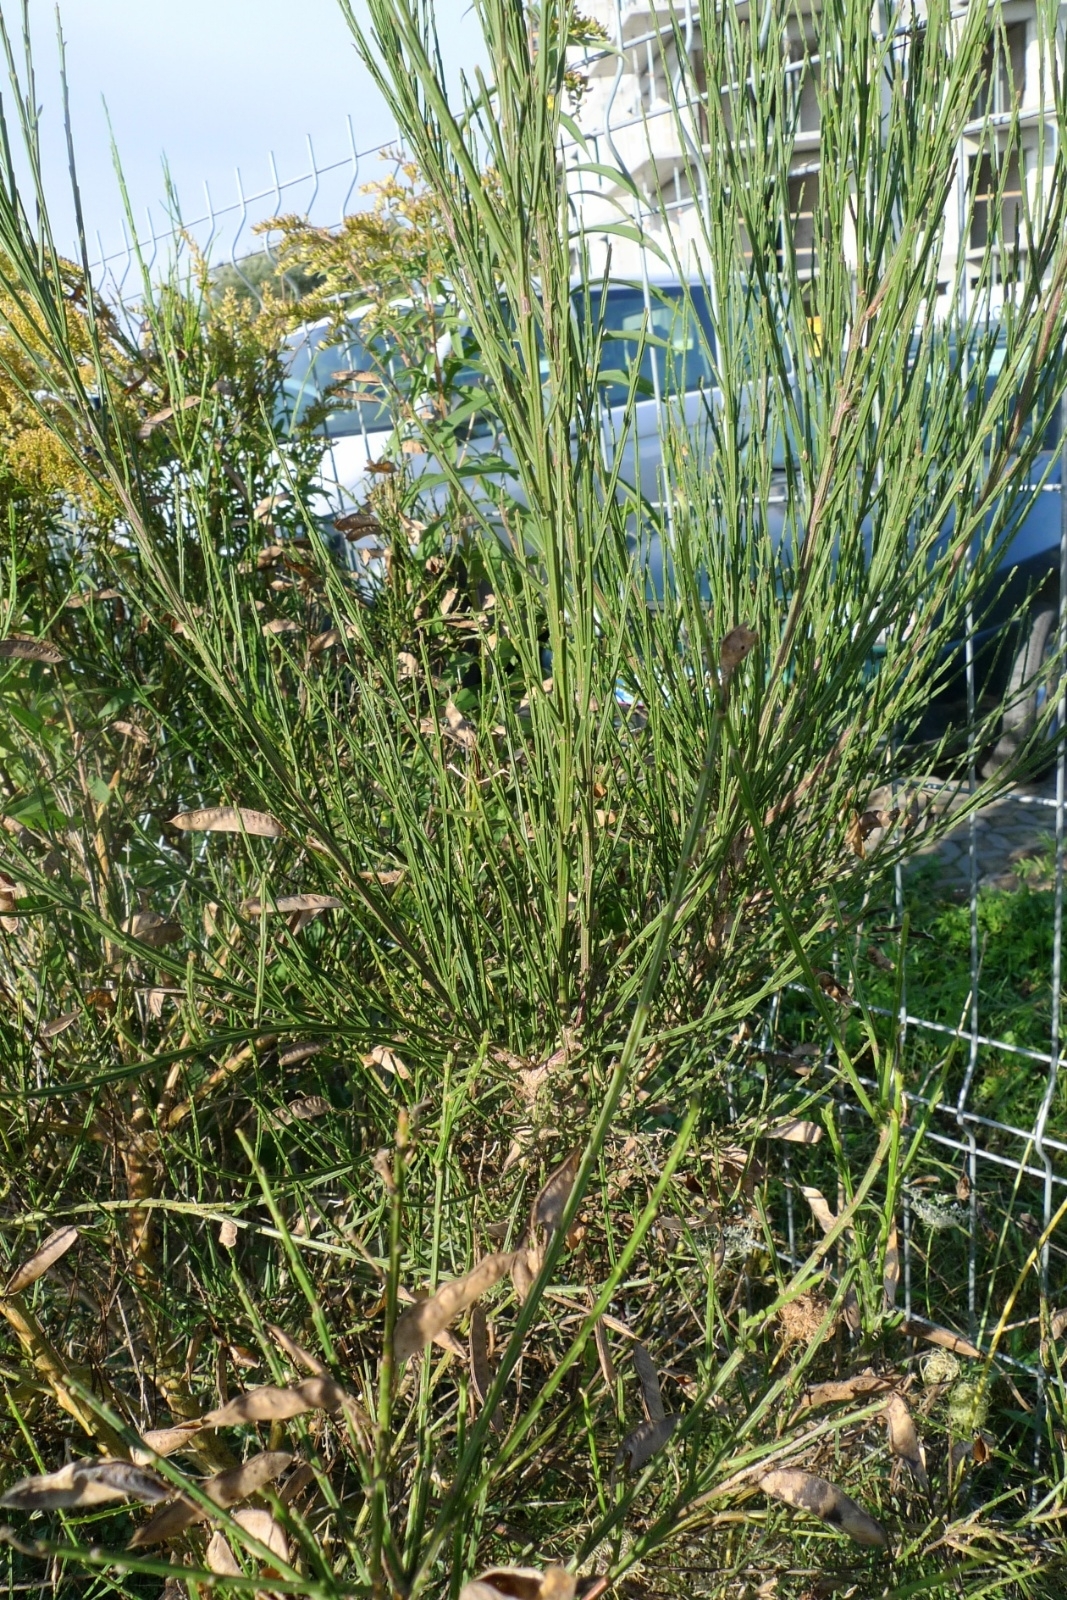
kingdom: Plantae
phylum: Tracheophyta
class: Magnoliopsida
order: Fabales
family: Fabaceae
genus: Cytisus
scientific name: Cytisus scoparius
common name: Scotch broom
